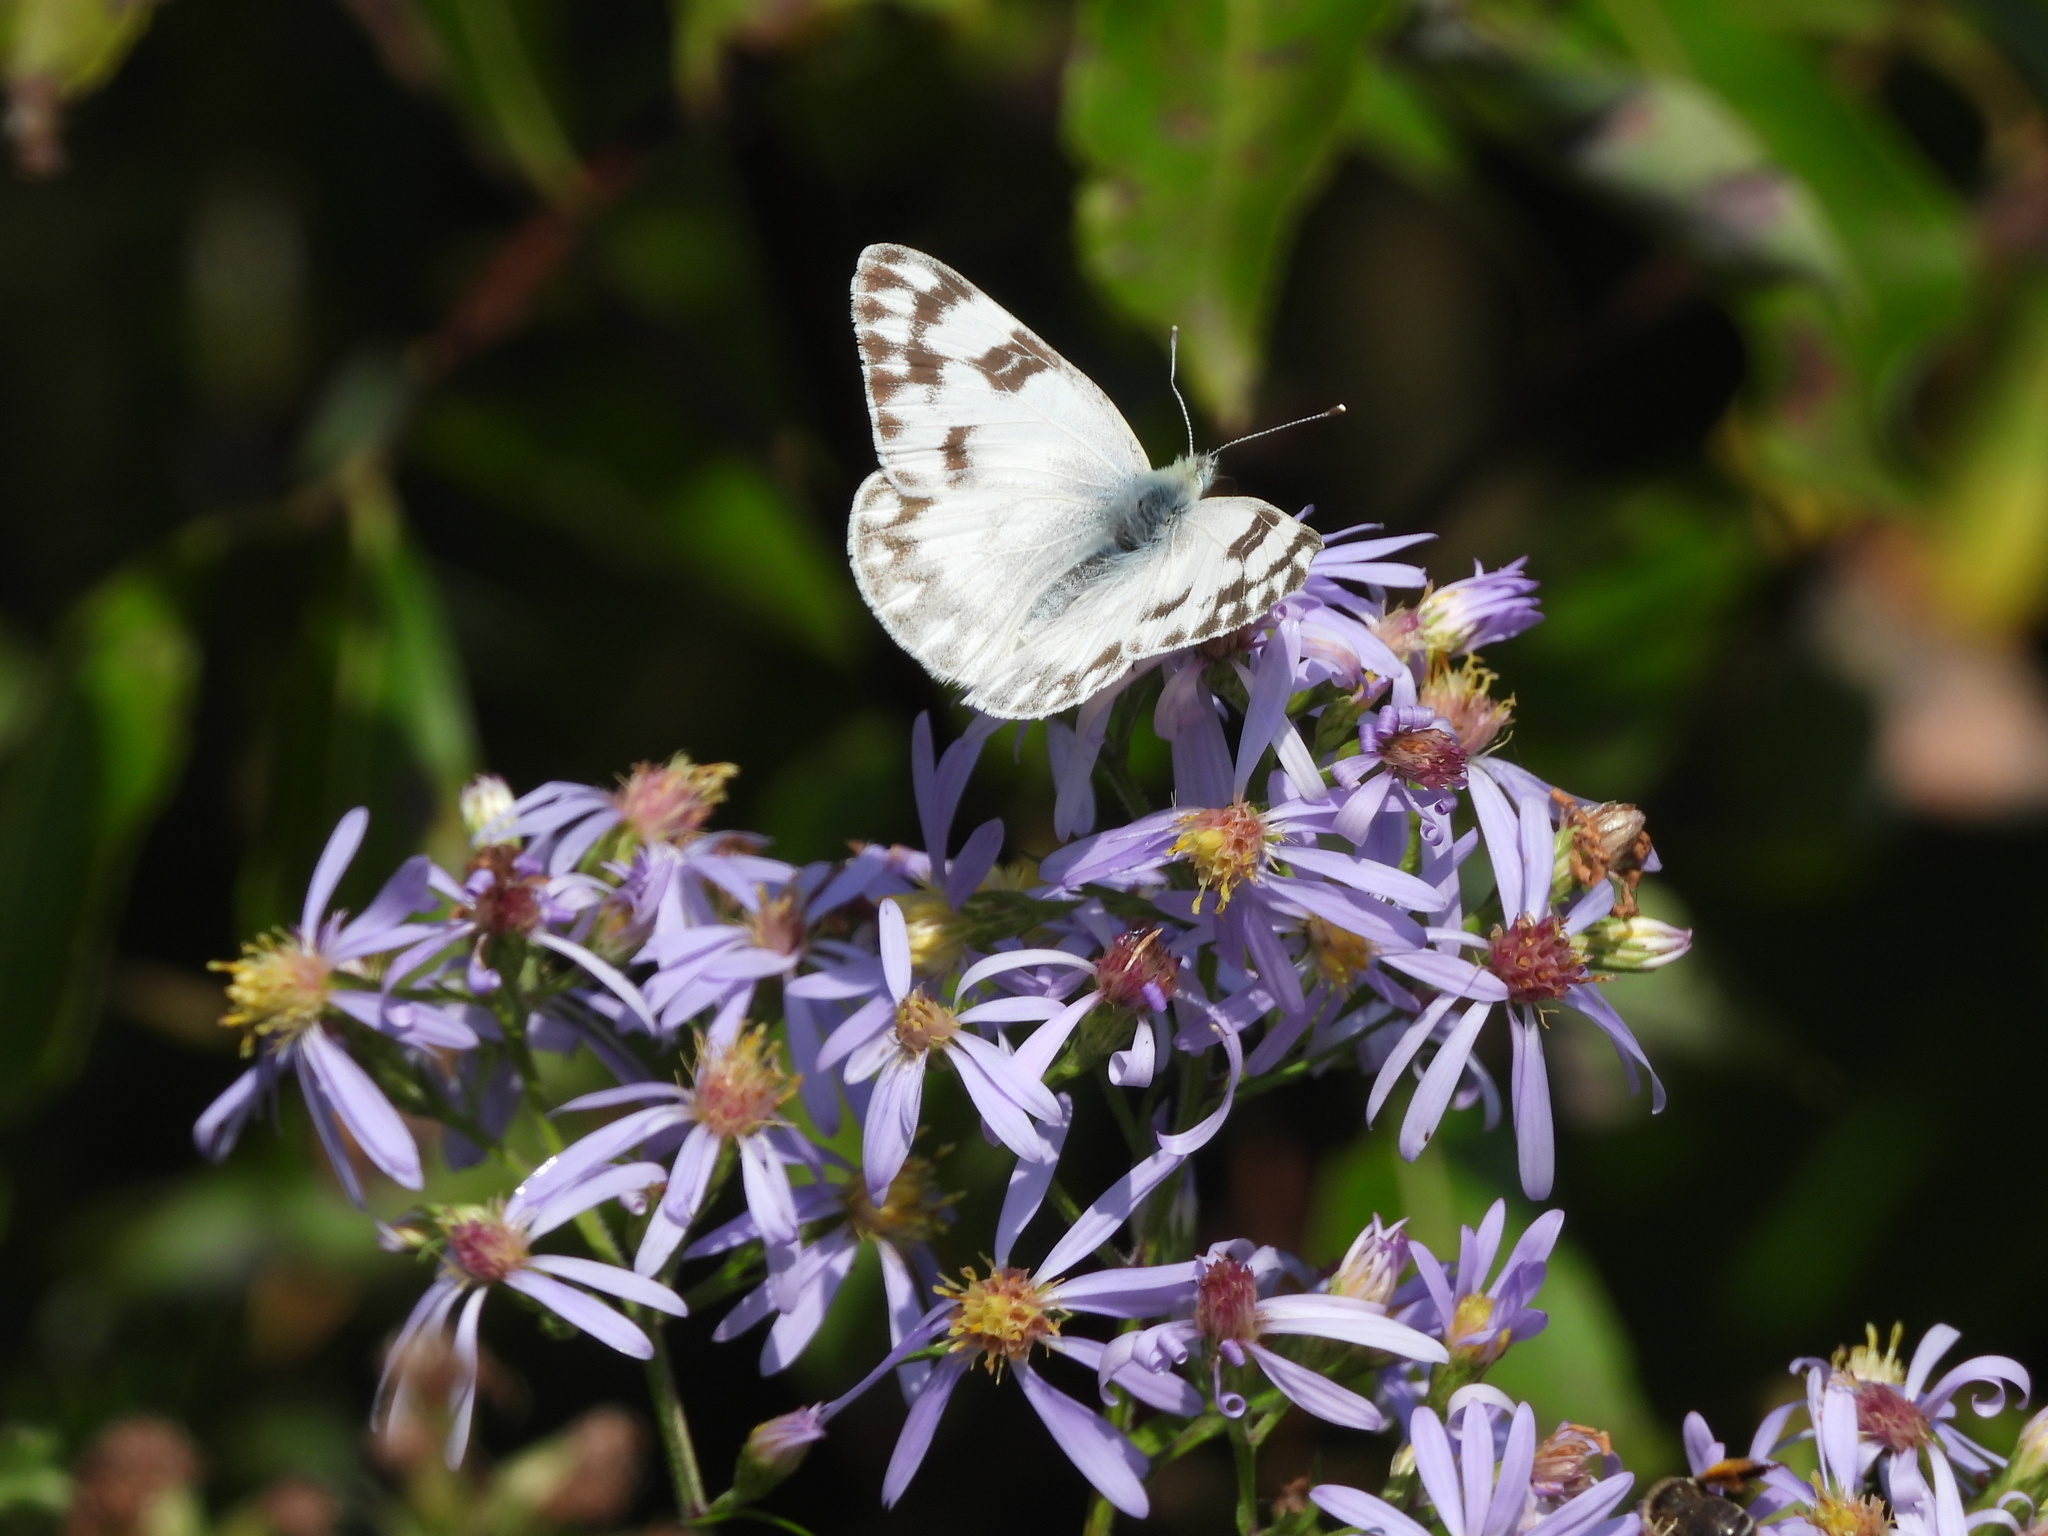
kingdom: Animalia
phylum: Arthropoda
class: Insecta
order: Lepidoptera
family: Pieridae
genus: Pontia
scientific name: Pontia occidentalis
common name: Western white
